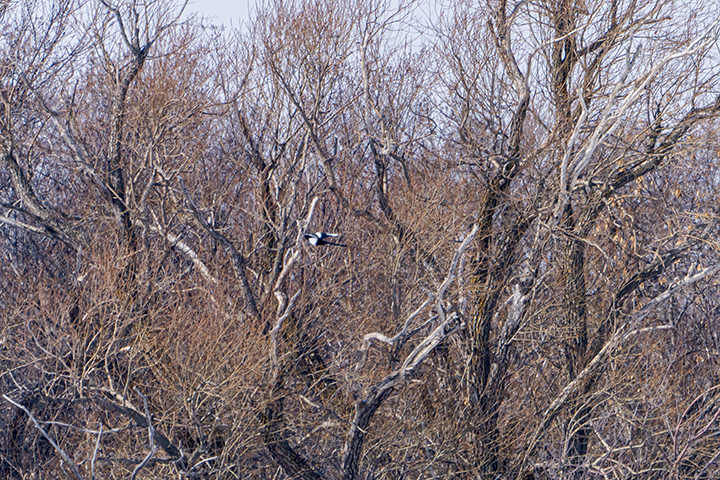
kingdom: Animalia
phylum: Chordata
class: Aves
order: Passeriformes
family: Corvidae
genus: Pica
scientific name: Pica hudsonia
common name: Black-billed magpie
